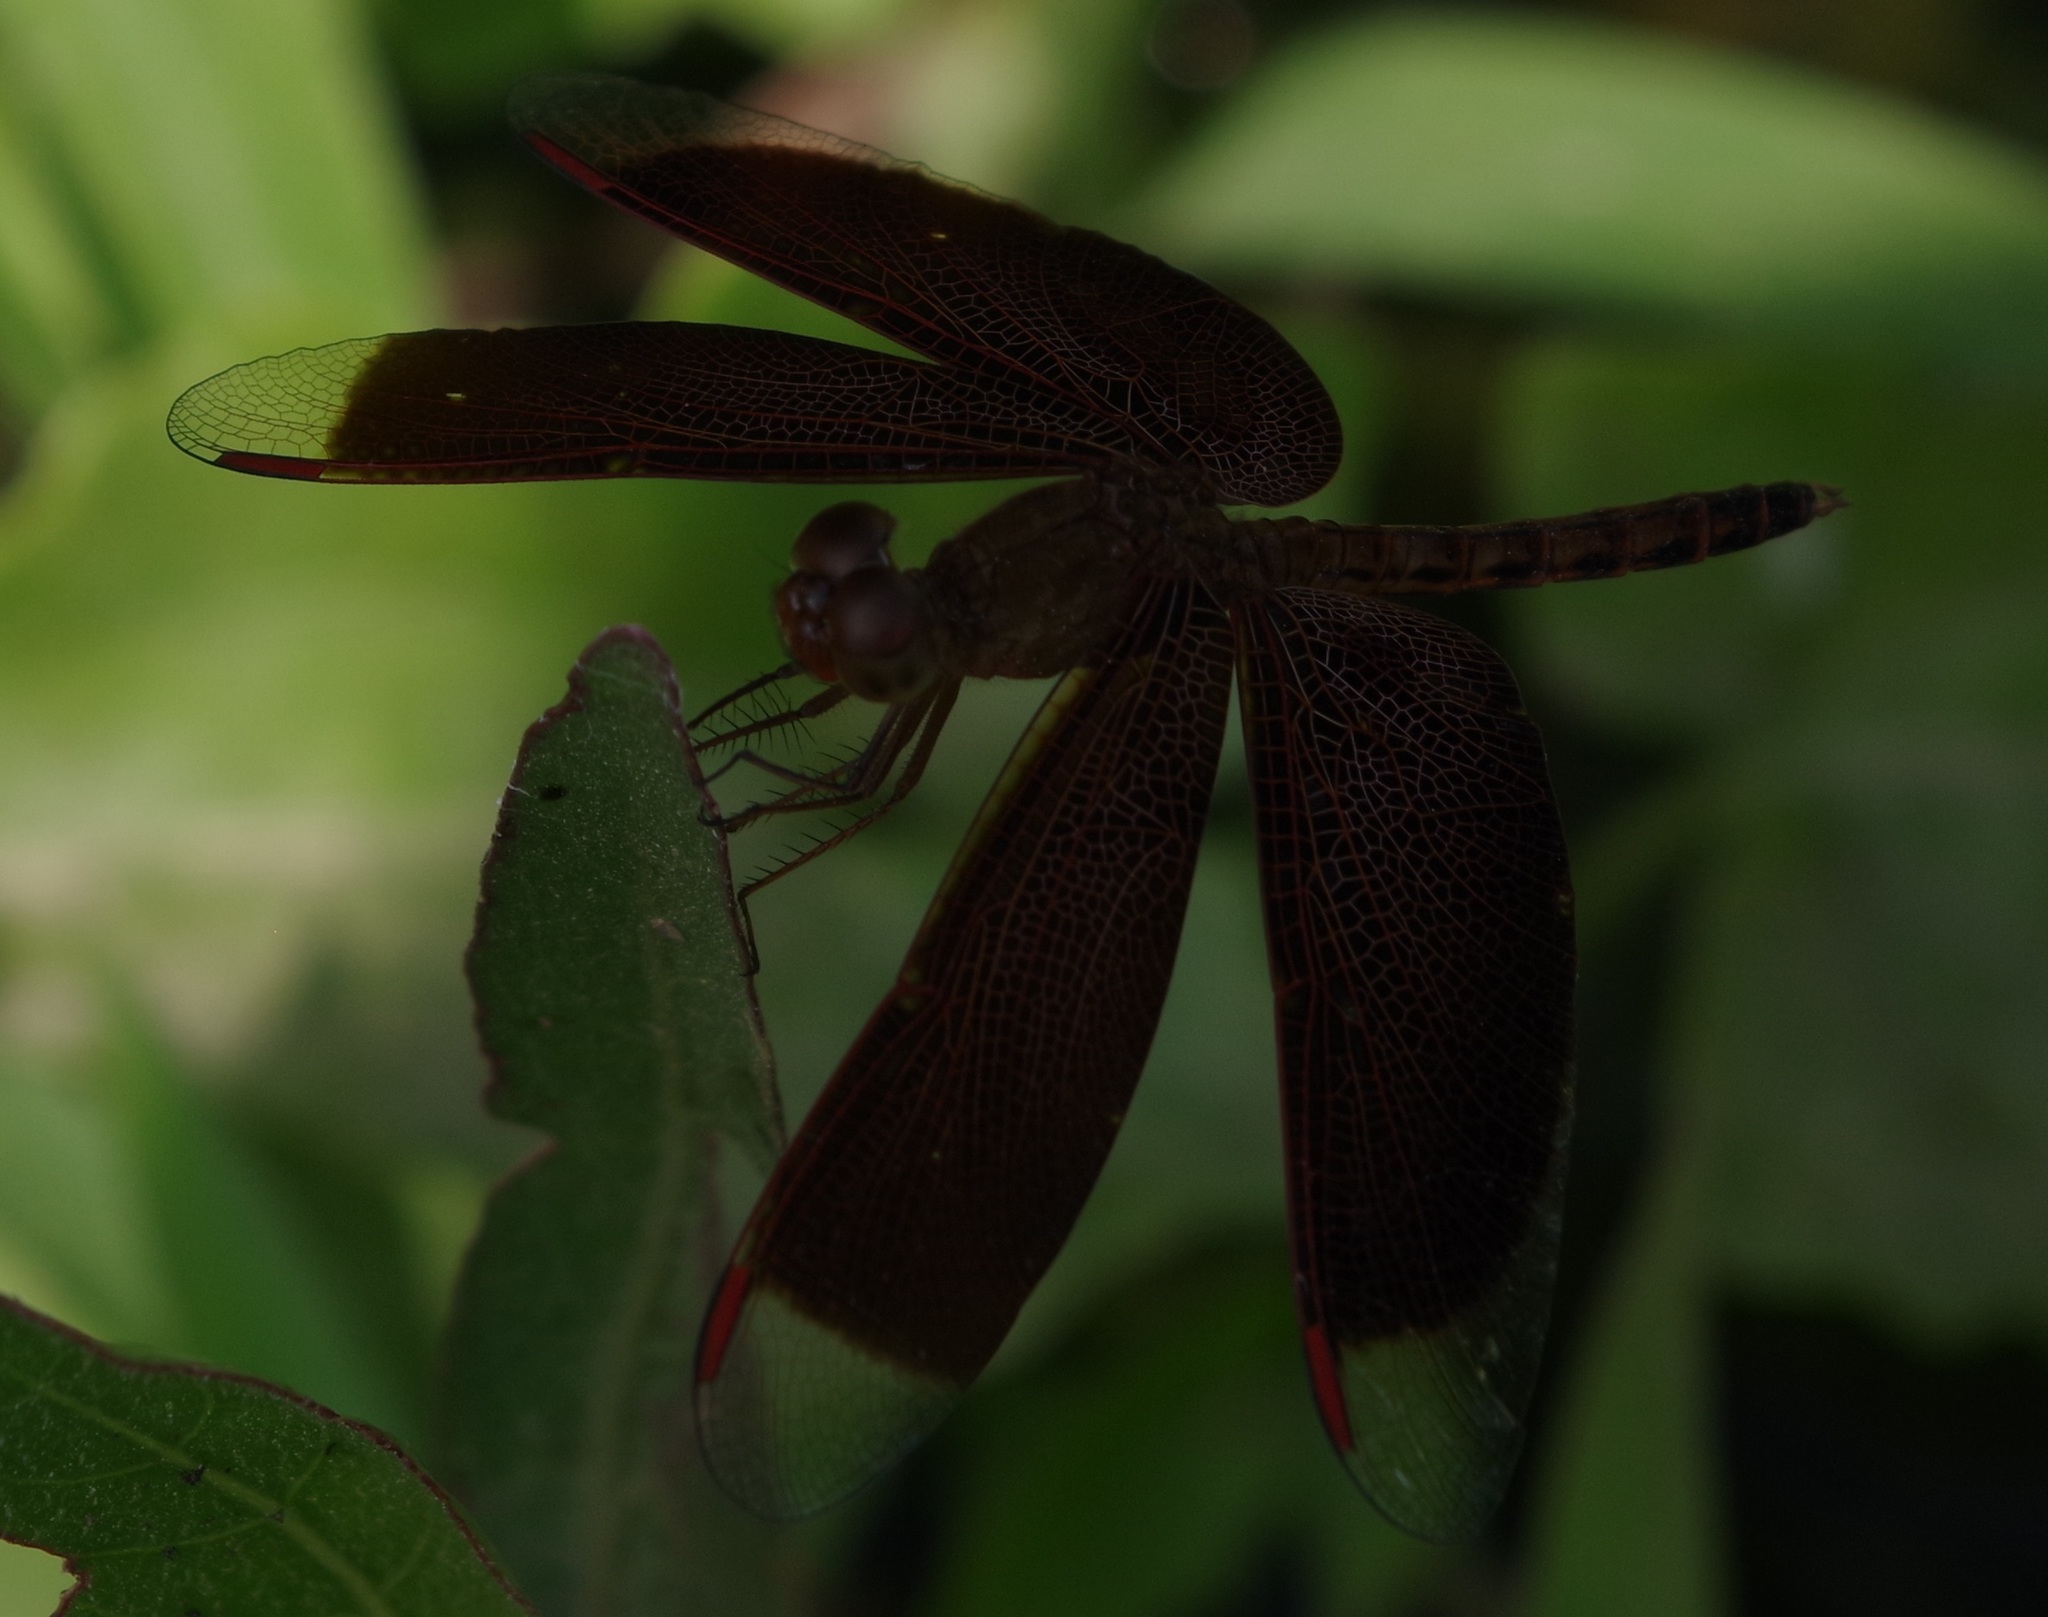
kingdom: Animalia
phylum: Arthropoda
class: Insecta
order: Odonata
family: Libellulidae
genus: Neurothemis
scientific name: Neurothemis fluctuans
